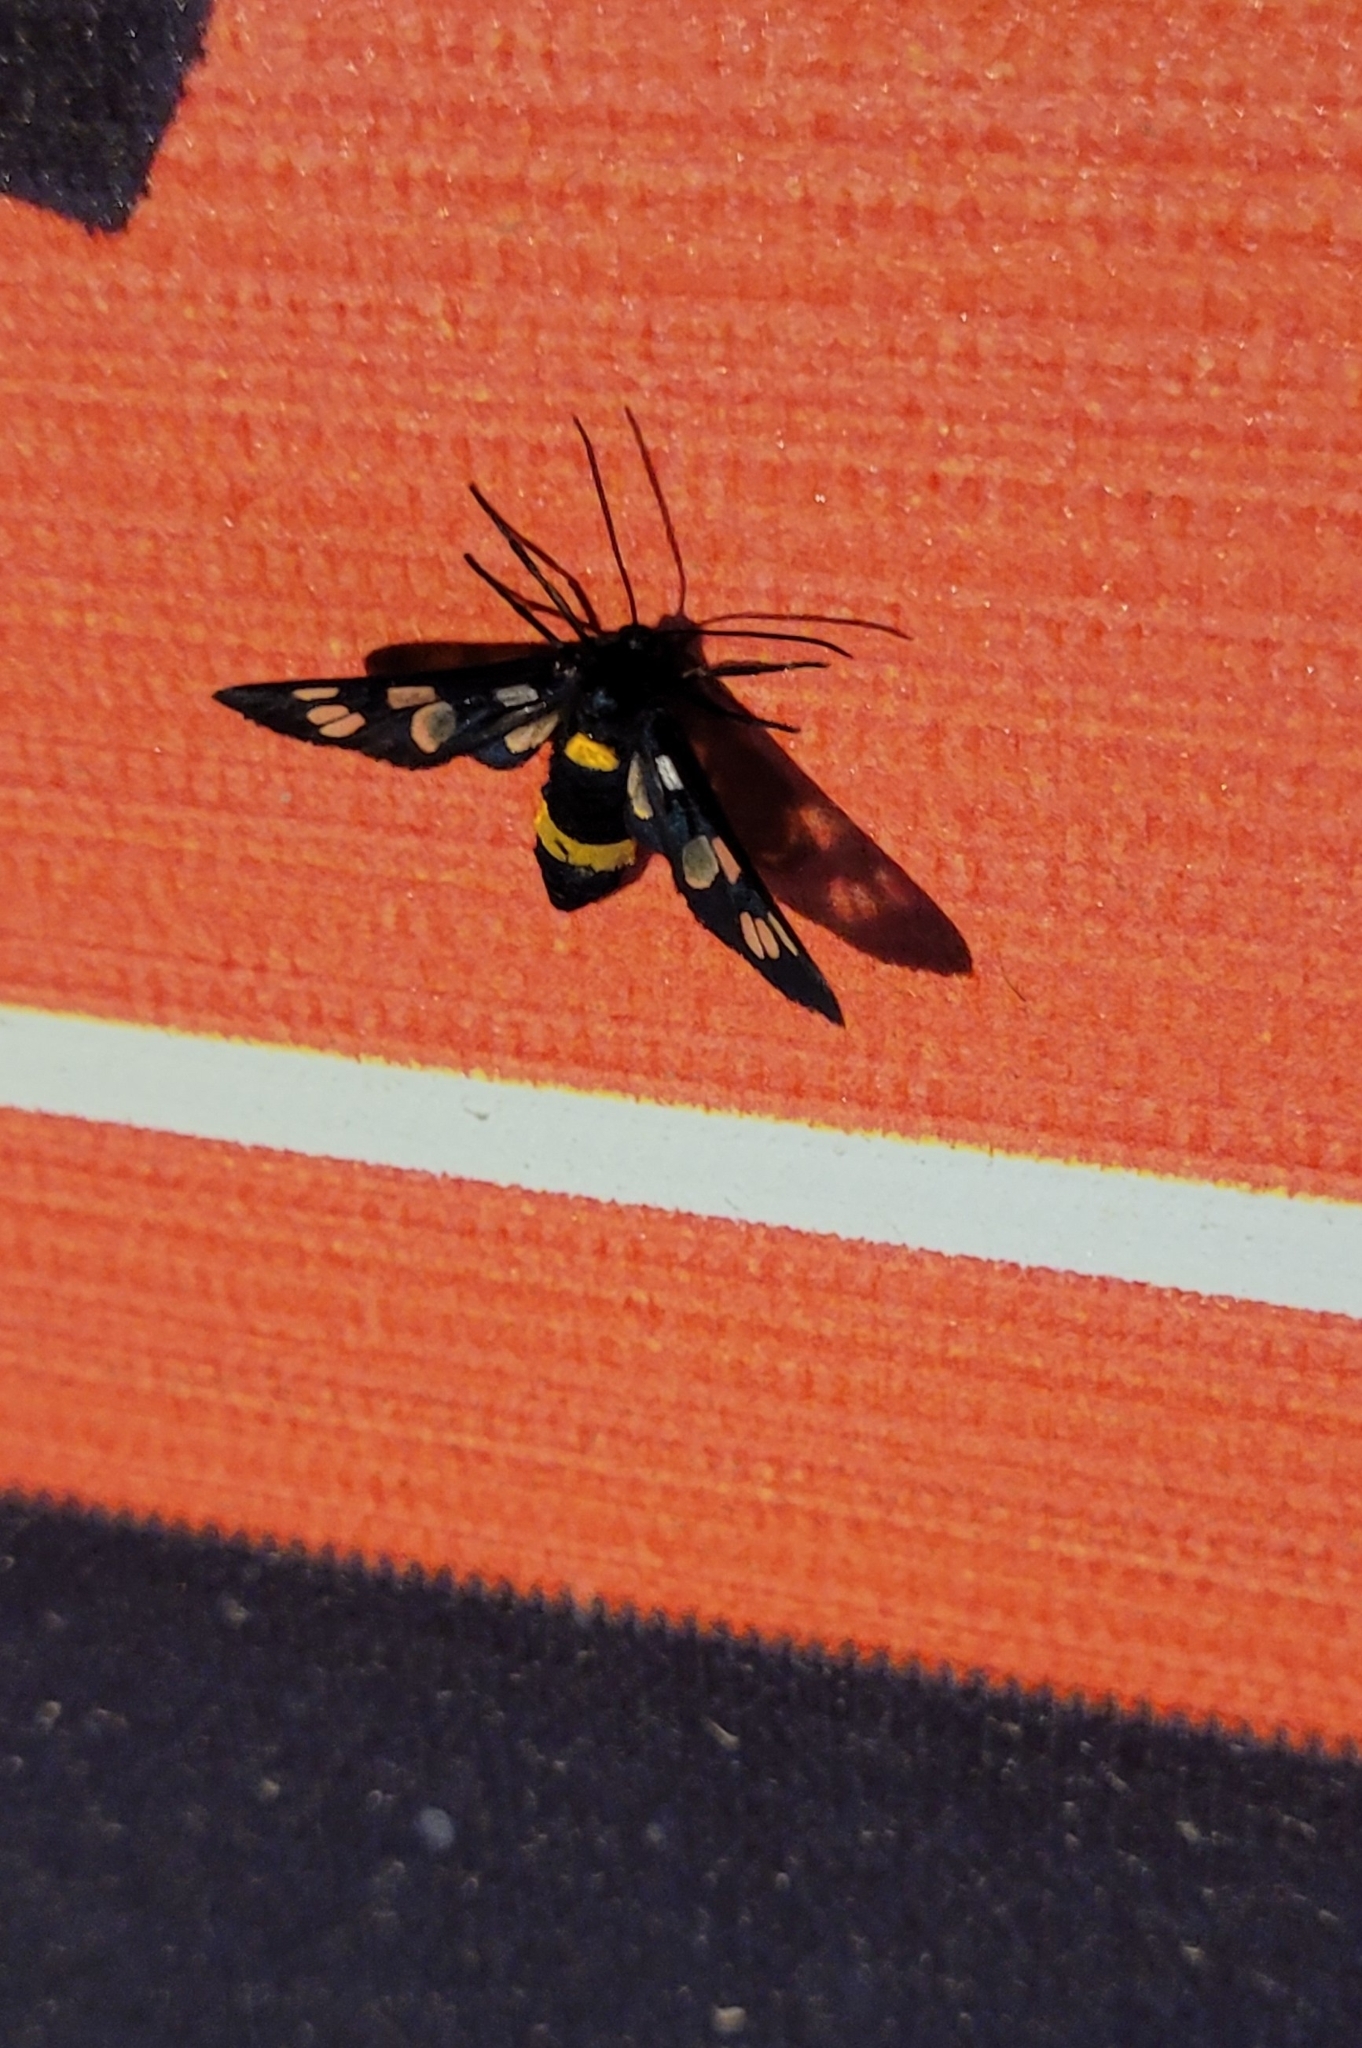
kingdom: Animalia
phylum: Arthropoda
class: Insecta
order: Lepidoptera
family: Erebidae
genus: Amata
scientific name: Amata caspia
